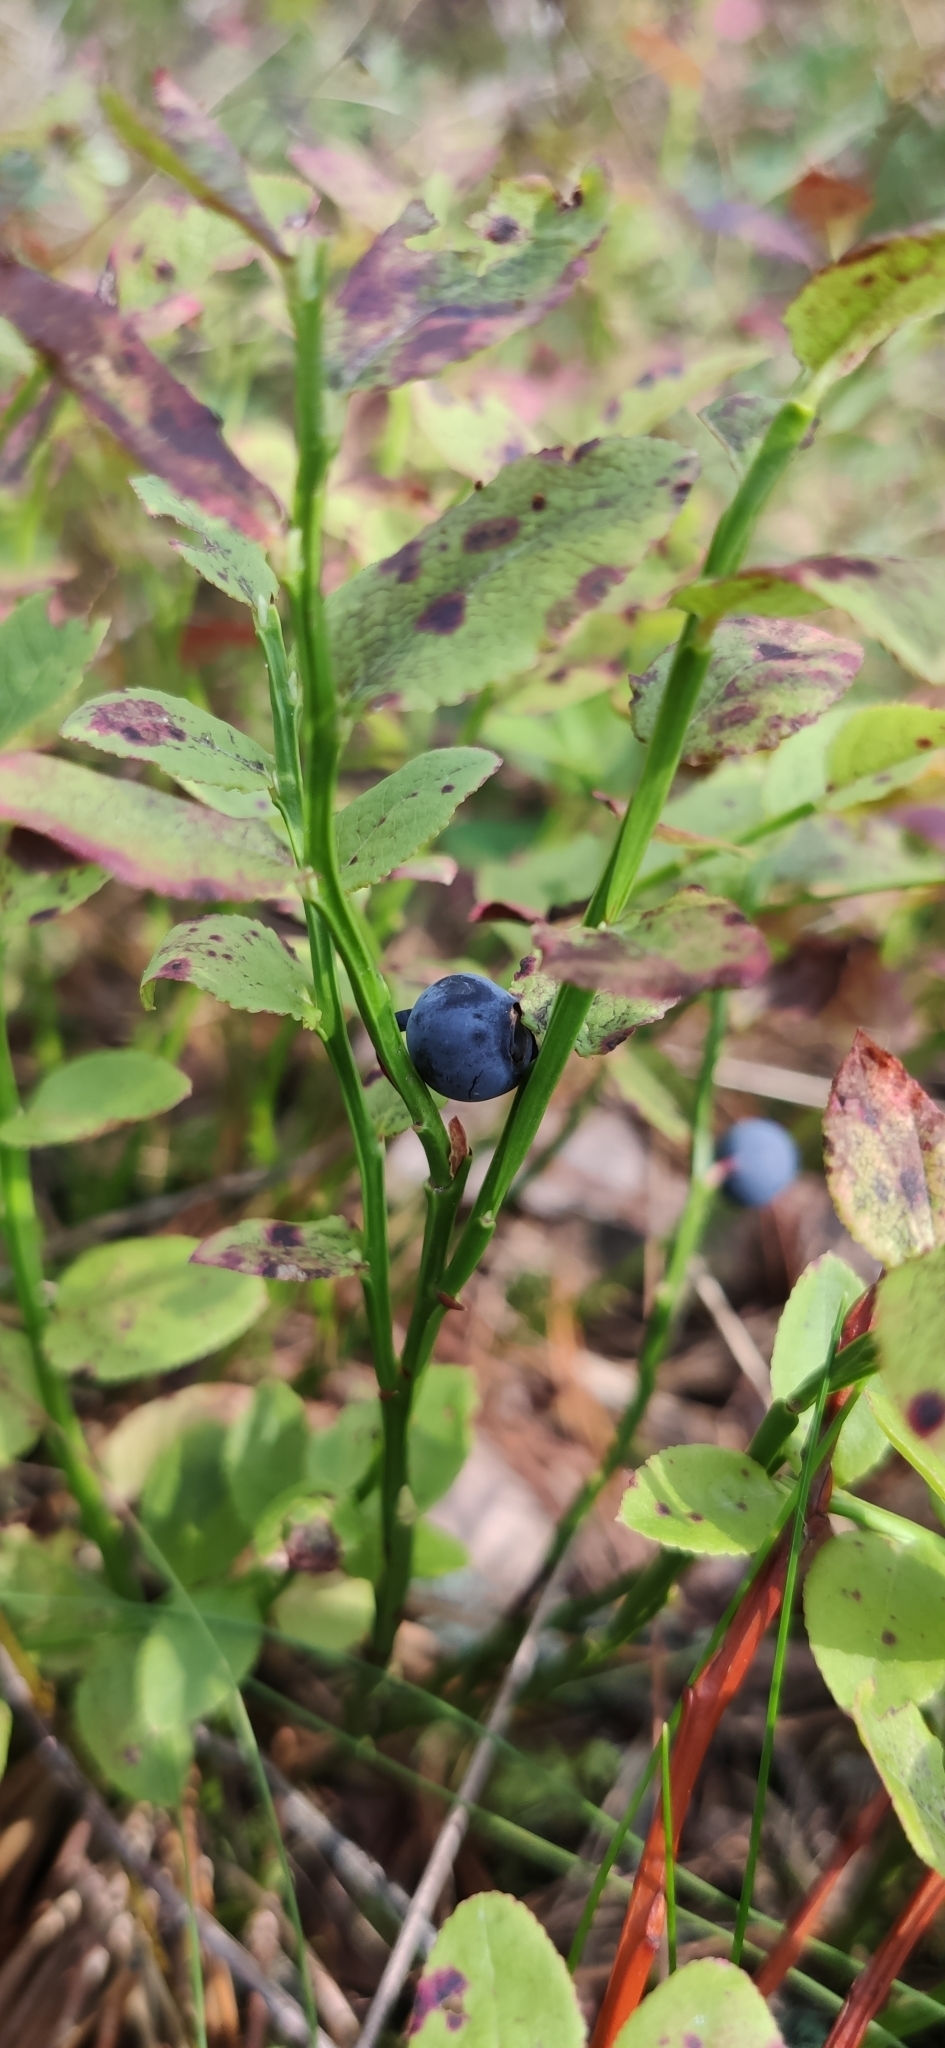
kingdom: Plantae
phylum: Tracheophyta
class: Magnoliopsida
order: Ericales
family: Ericaceae
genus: Vaccinium
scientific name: Vaccinium myrtillus
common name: Bilberry
